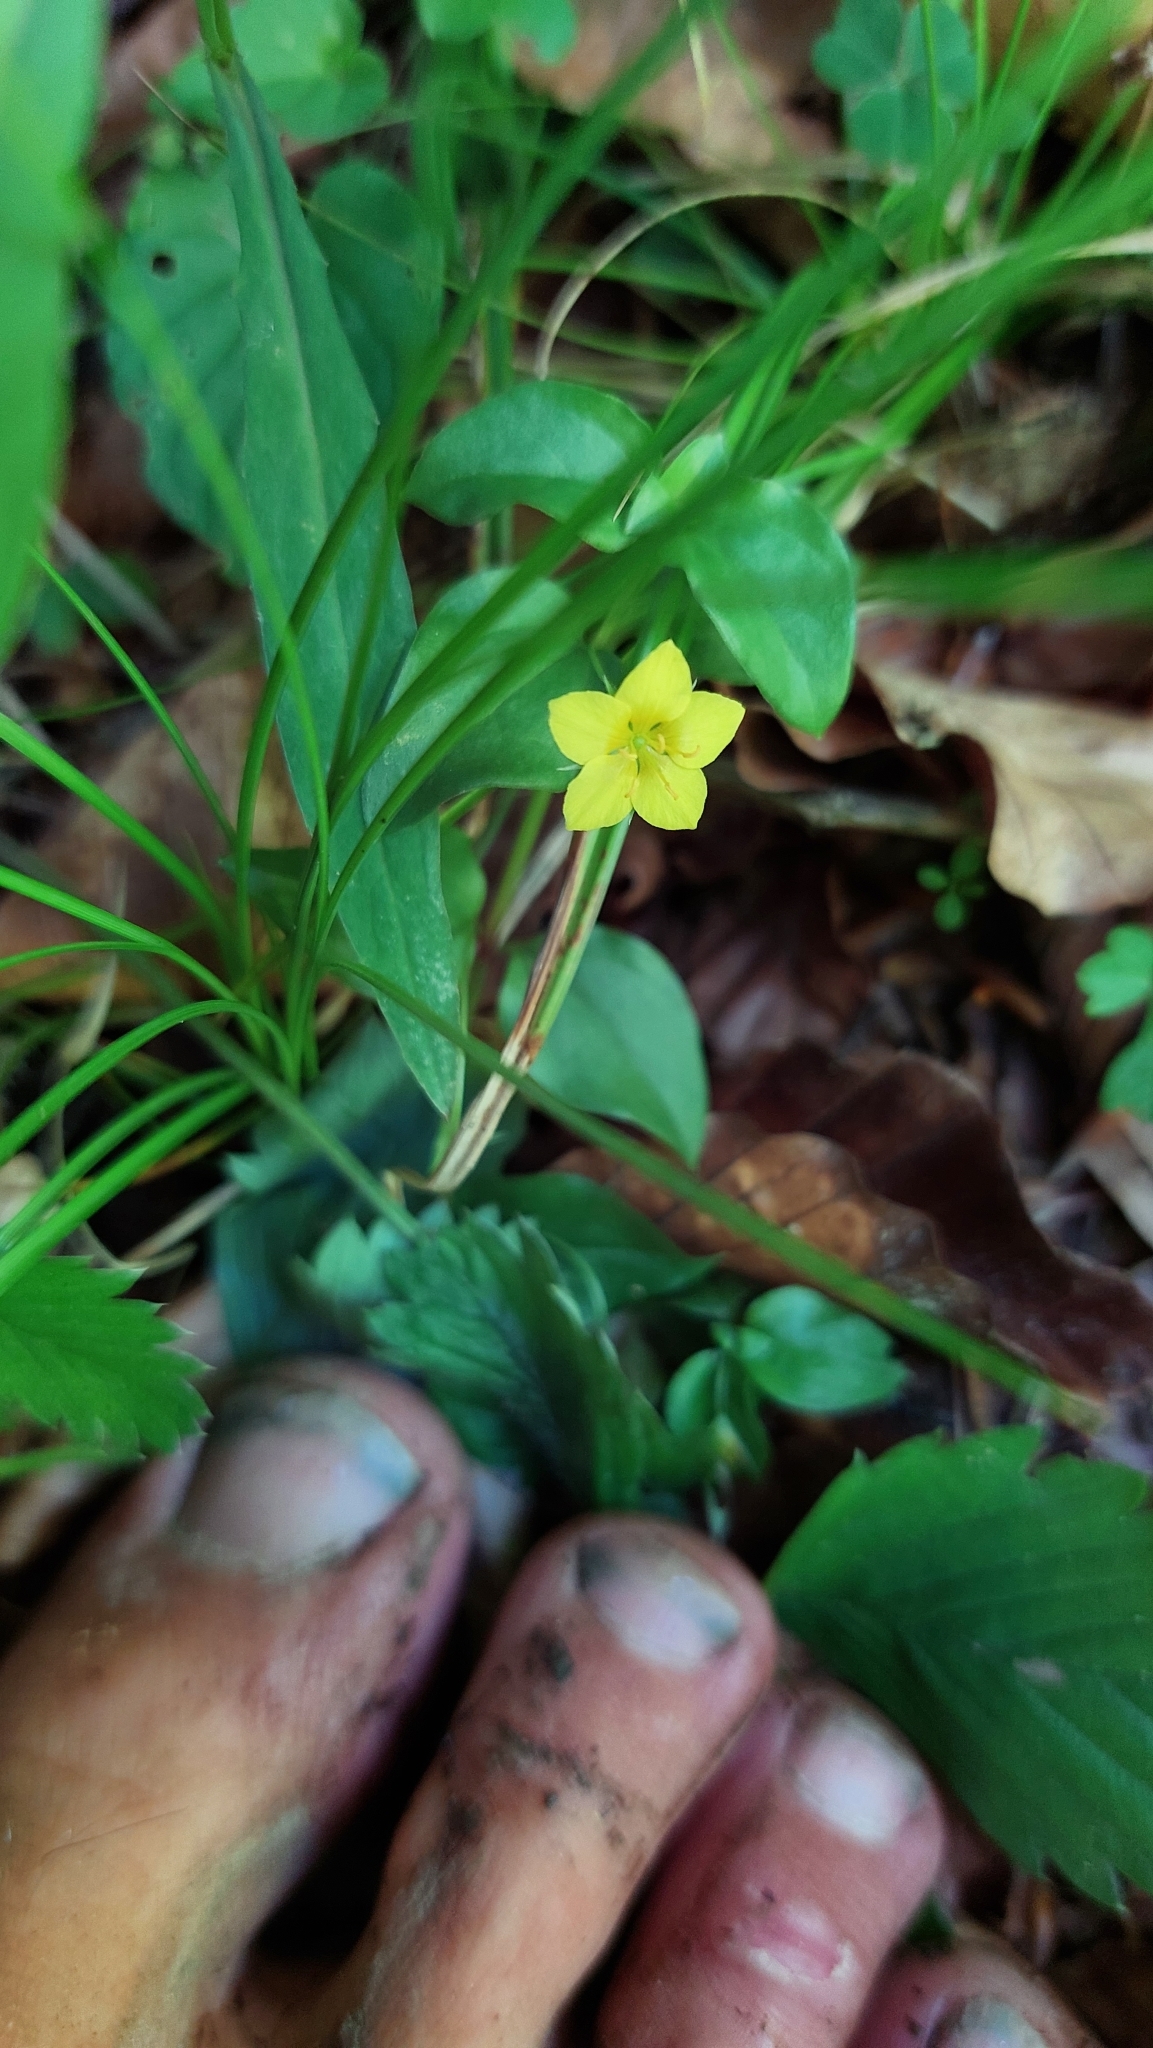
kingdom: Plantae
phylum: Tracheophyta
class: Magnoliopsida
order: Ericales
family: Primulaceae
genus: Lysimachia
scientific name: Lysimachia nemorum
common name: Yellow pimpernel
